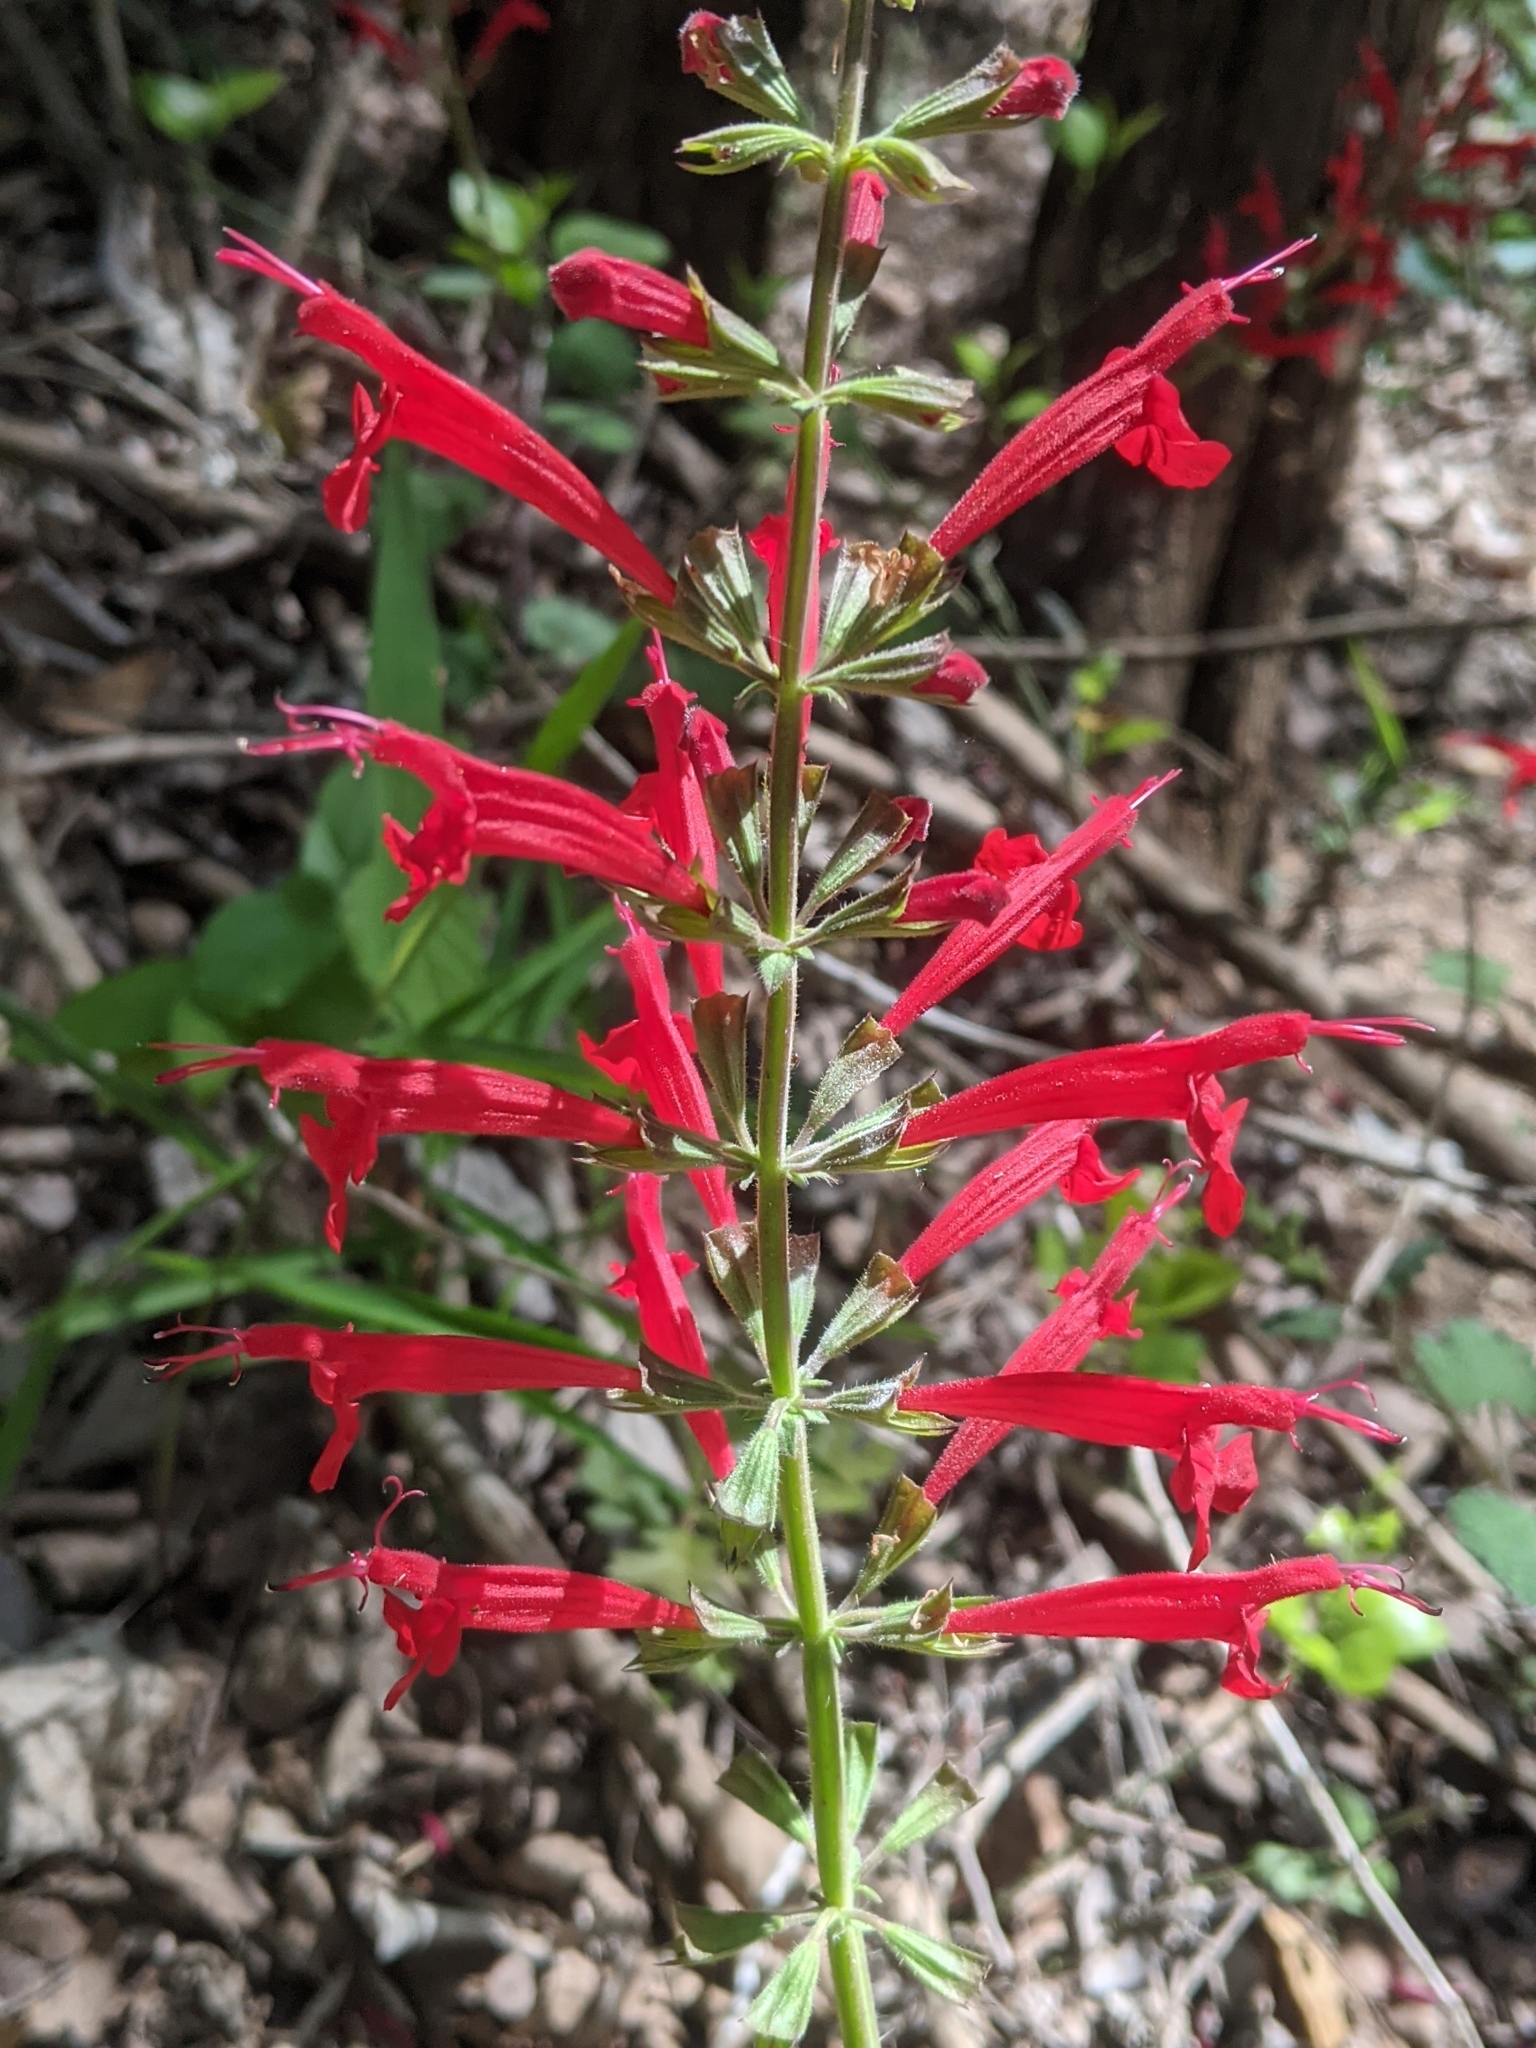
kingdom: Plantae
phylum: Tracheophyta
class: Magnoliopsida
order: Lamiales
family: Lamiaceae
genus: Salvia
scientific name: Salvia roemeriana
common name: Cedar sage
